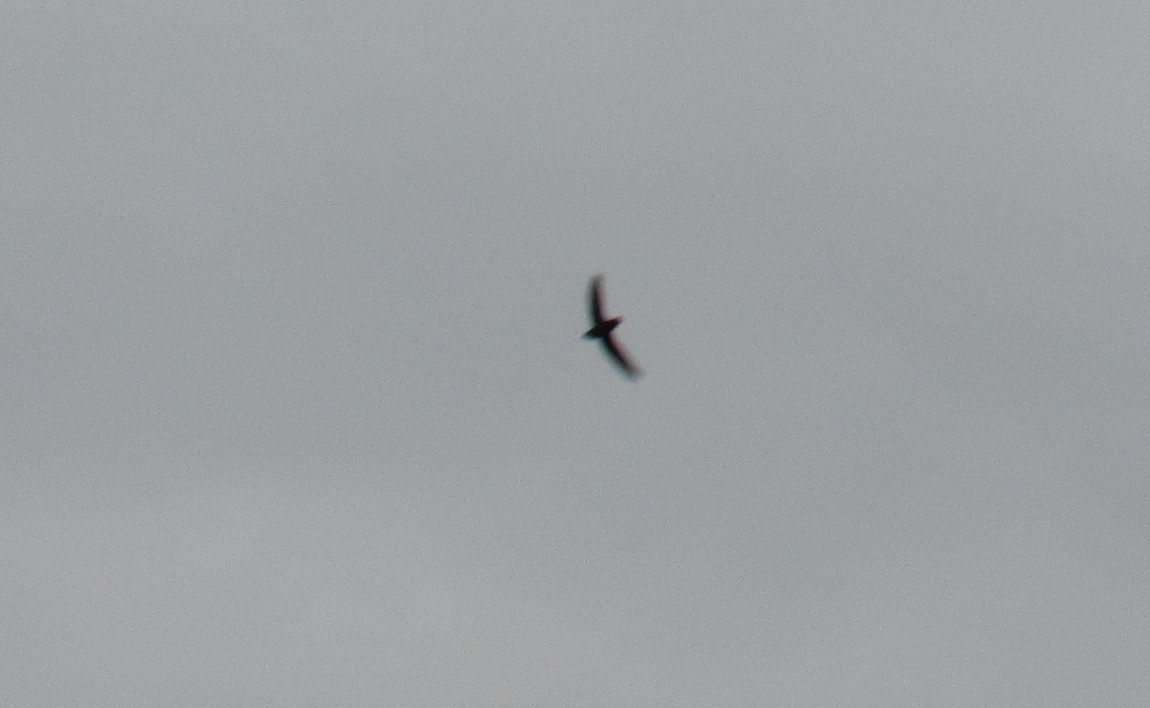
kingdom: Animalia
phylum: Chordata
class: Aves
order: Apodiformes
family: Apodidae
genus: Chaetura
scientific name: Chaetura pelagica
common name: Chimney swift
